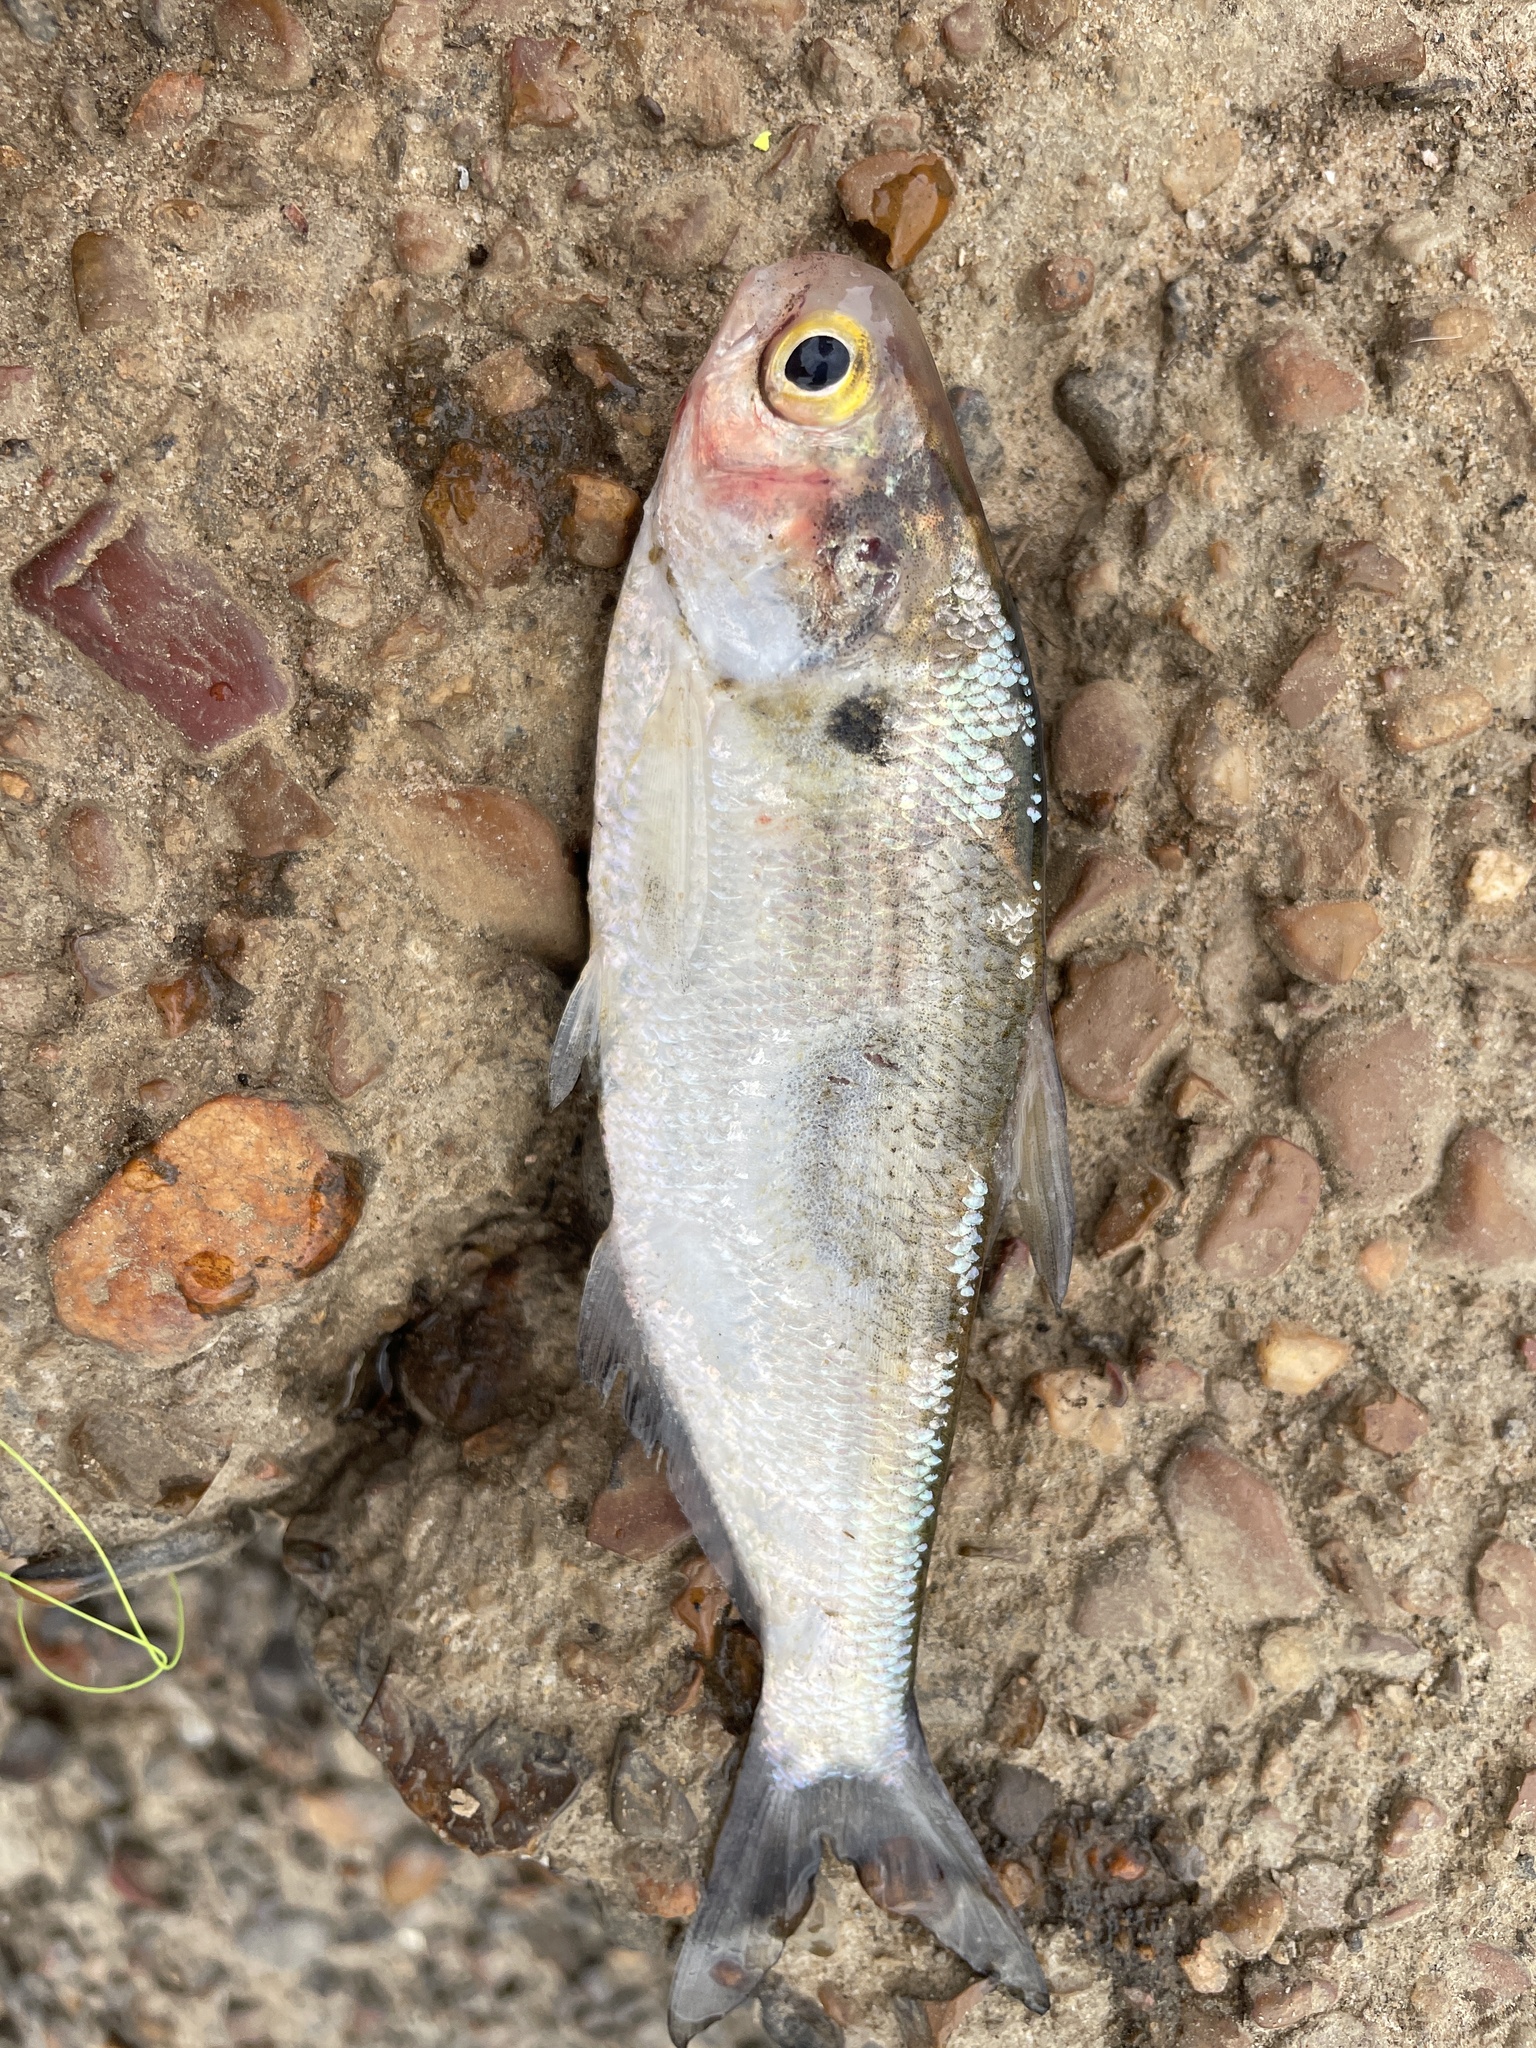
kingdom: Animalia
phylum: Chordata
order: Clupeiformes
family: Clupeidae
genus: Dorosoma
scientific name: Dorosoma cepedianum
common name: Gizzard shad
